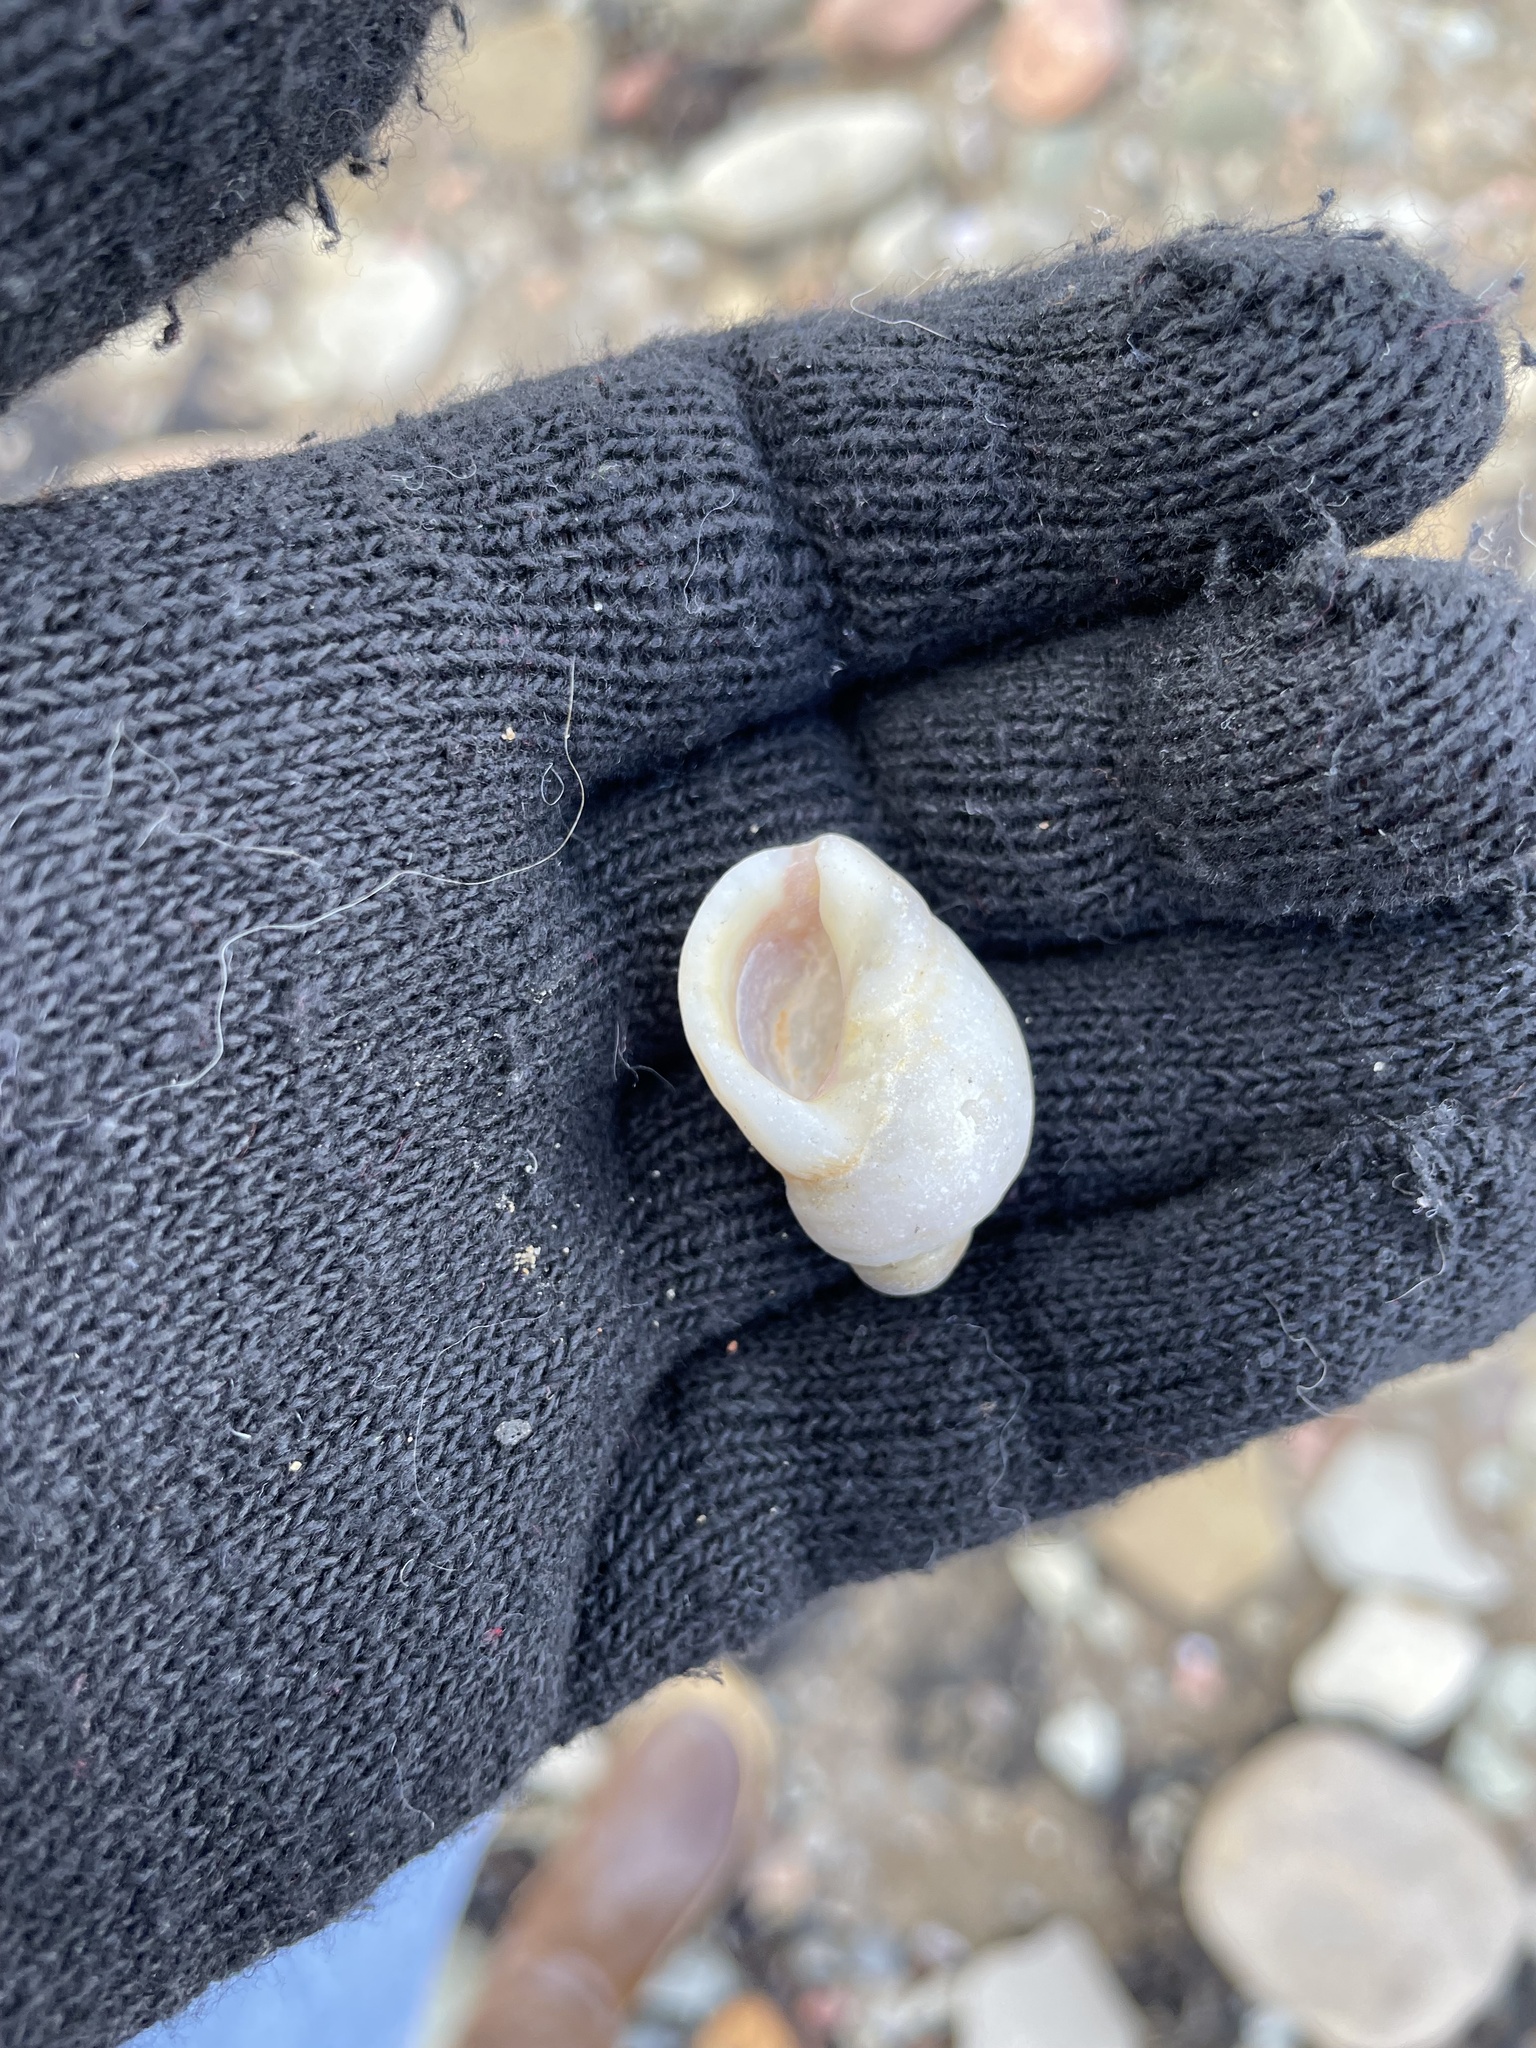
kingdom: Animalia
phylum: Mollusca
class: Gastropoda
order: Neogastropoda
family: Muricidae
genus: Nucella
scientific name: Nucella lapillus
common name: Dog whelk
